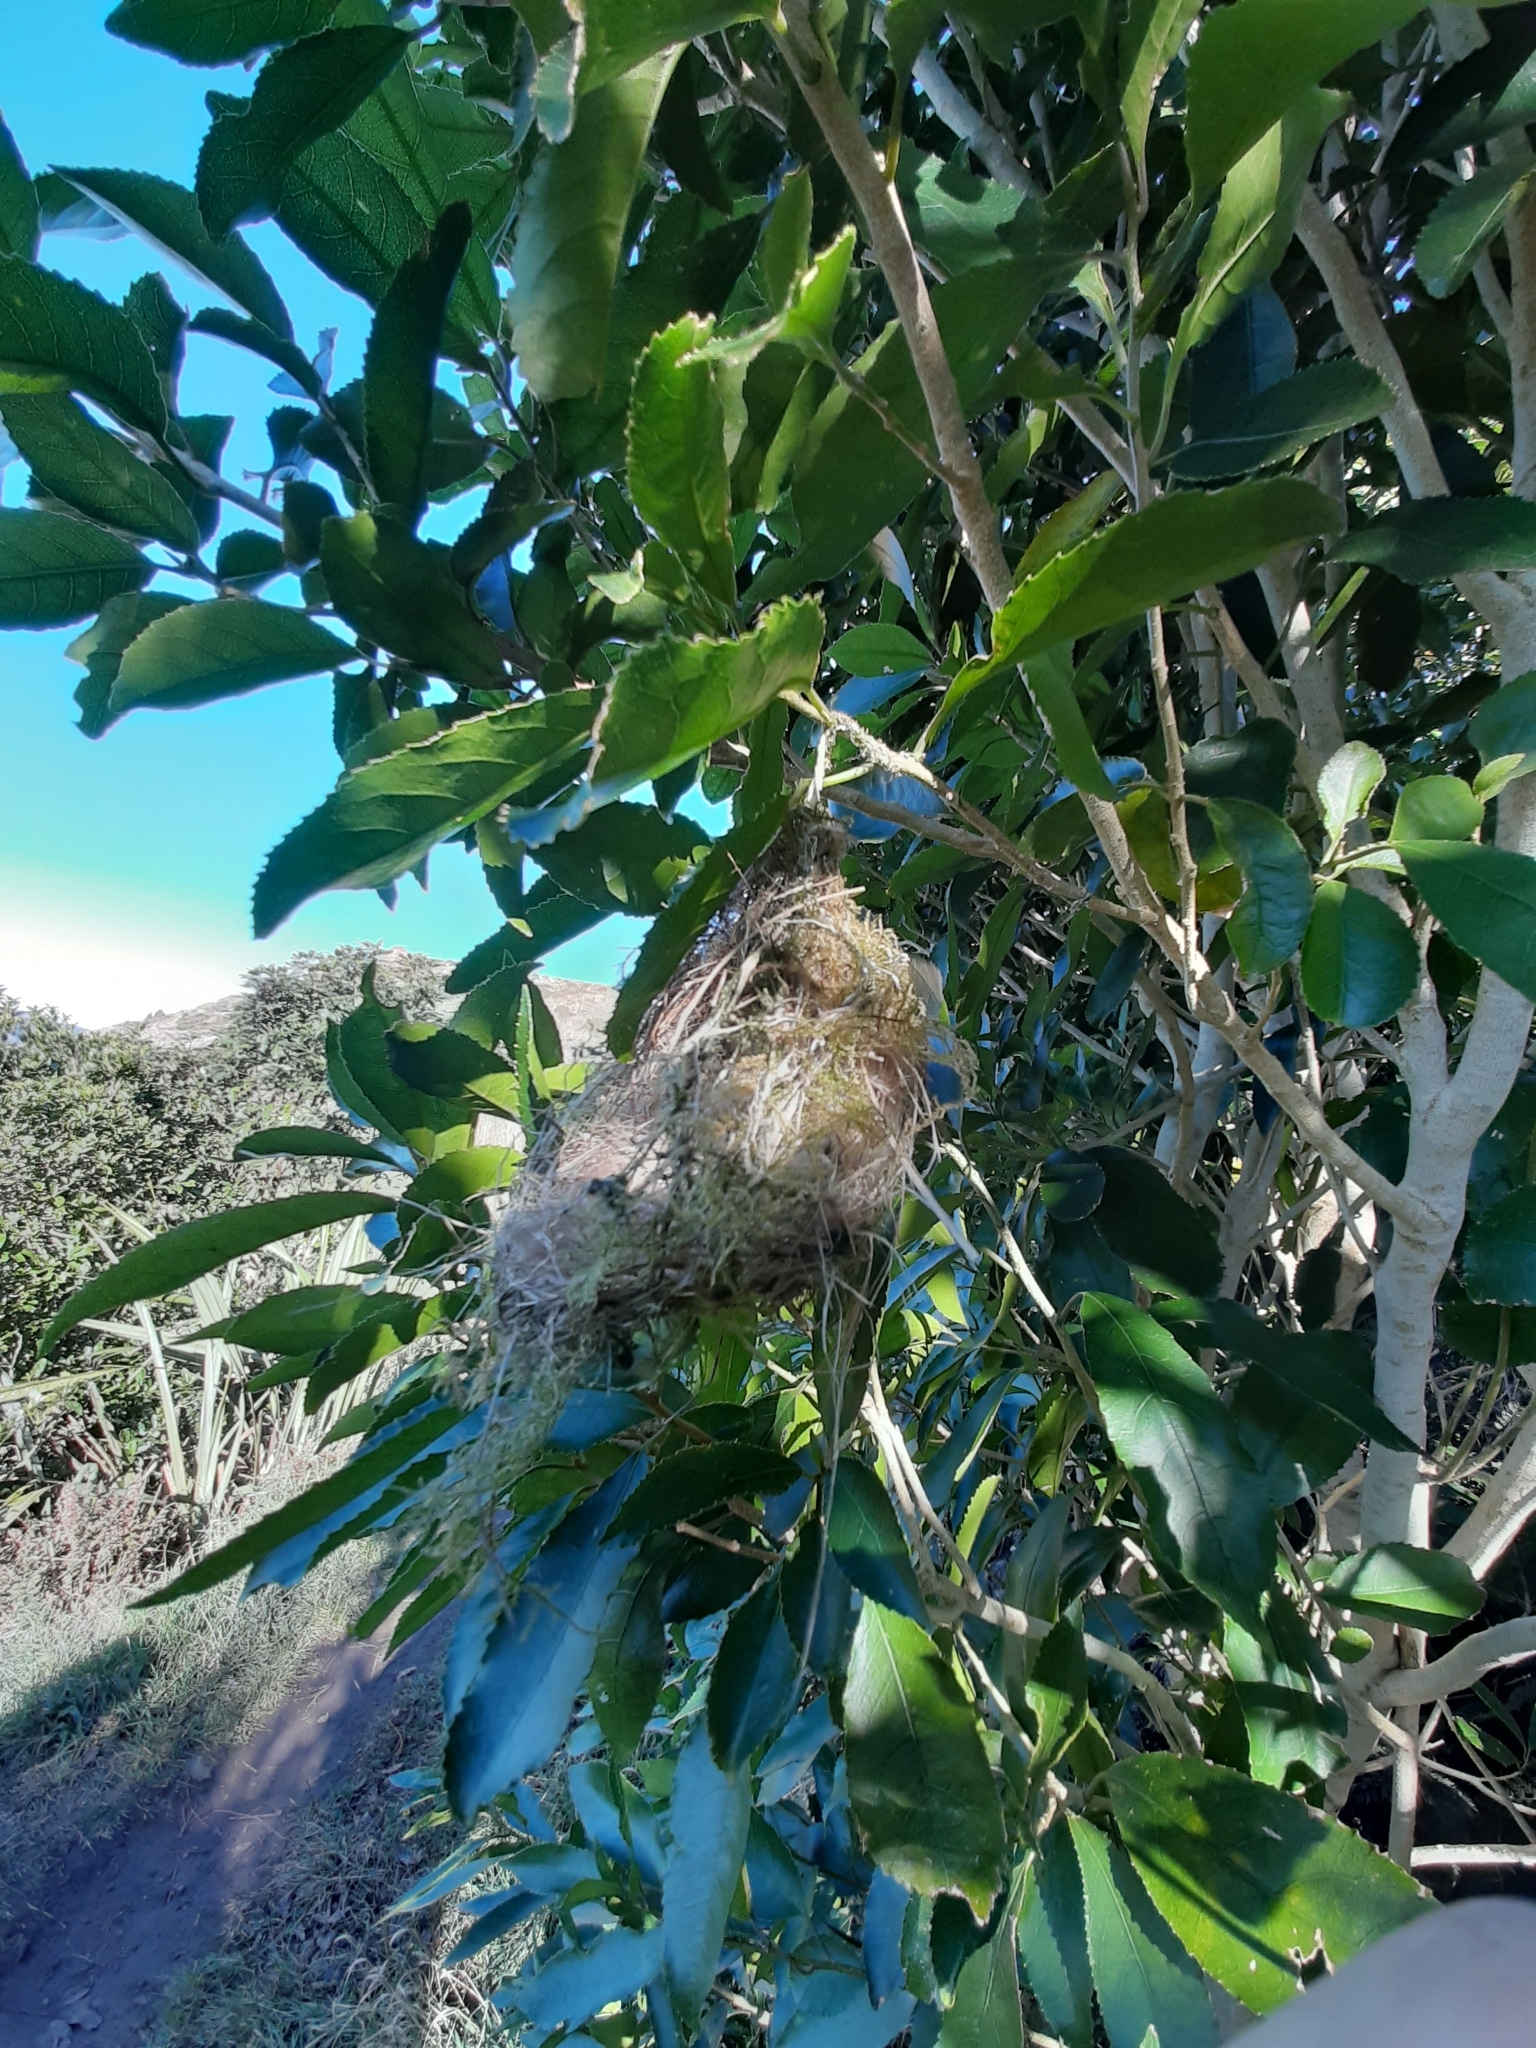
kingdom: Animalia
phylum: Chordata
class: Aves
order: Passeriformes
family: Zosteropidae
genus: Zosterops
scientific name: Zosterops lateralis
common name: Silvereye
